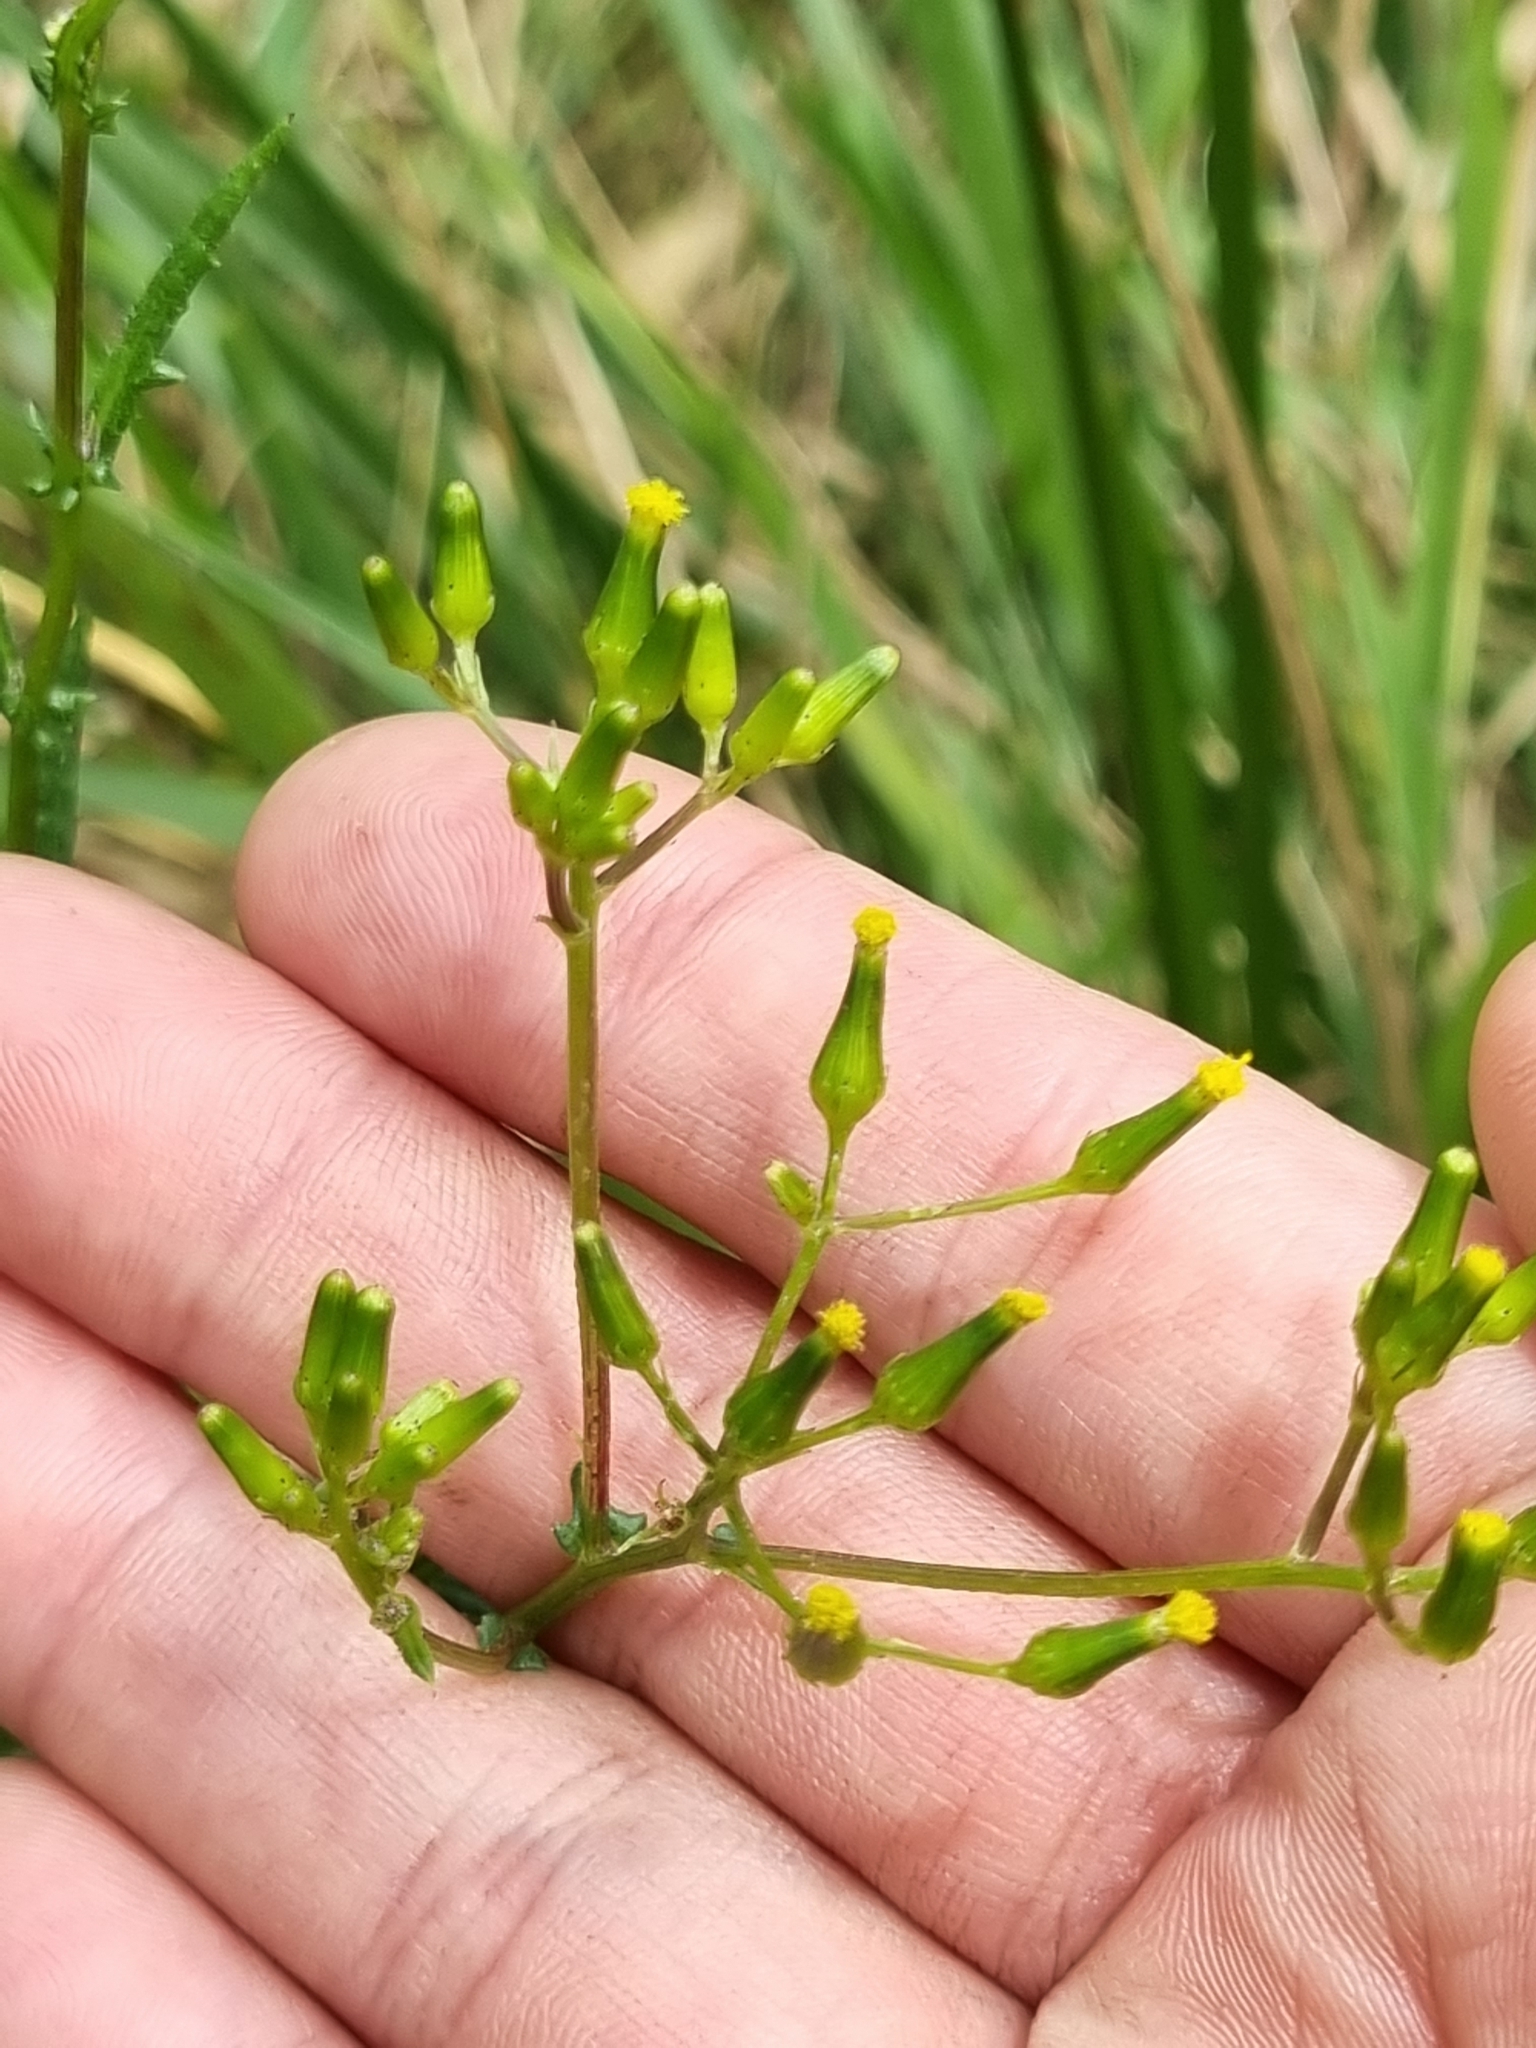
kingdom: Plantae
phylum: Tracheophyta
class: Magnoliopsida
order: Asterales
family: Asteraceae
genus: Senecio
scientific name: Senecio hispidulus
